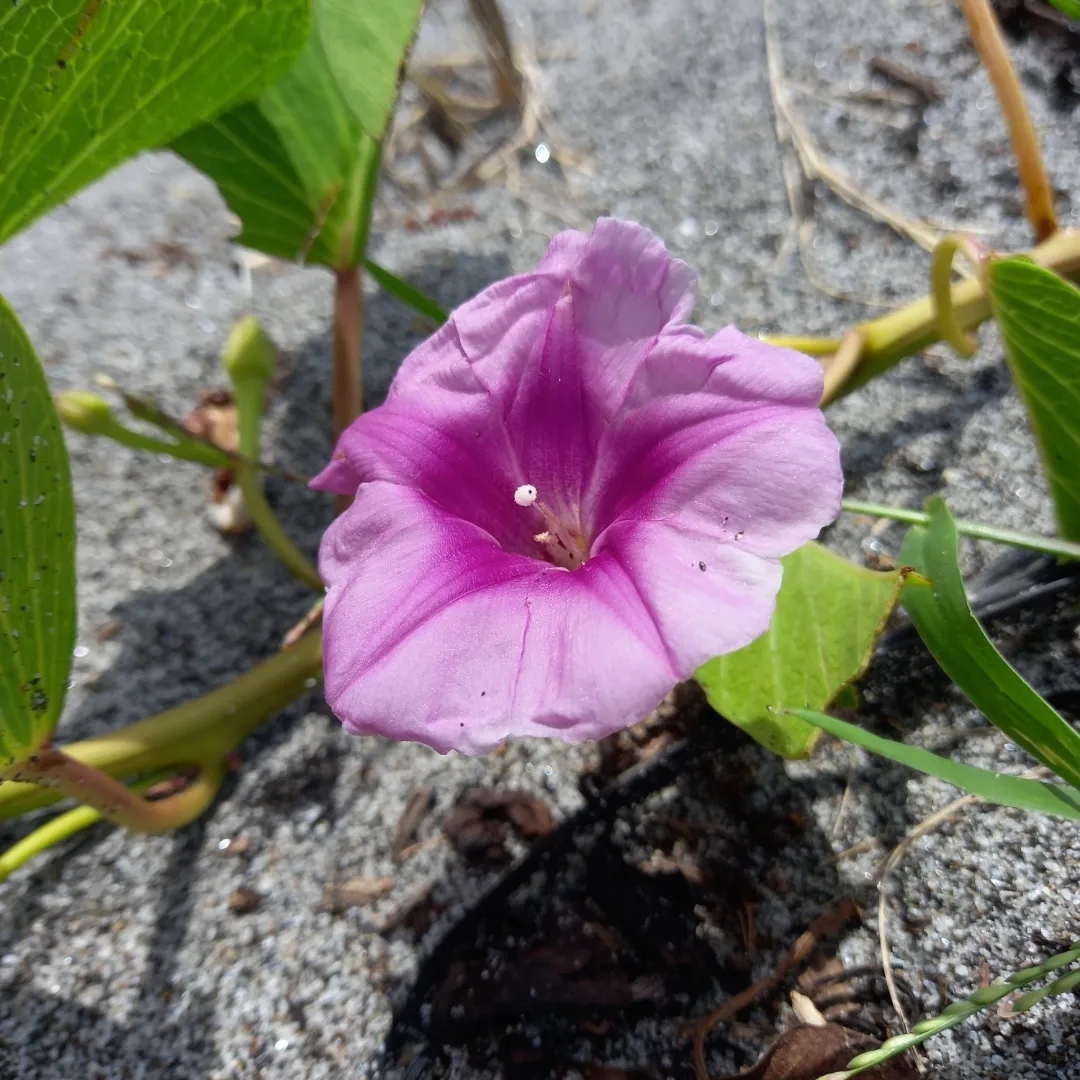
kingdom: Plantae
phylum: Tracheophyta
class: Magnoliopsida
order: Solanales
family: Convolvulaceae
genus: Ipomoea
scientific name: Ipomoea pes-caprae
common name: Beach morning glory
